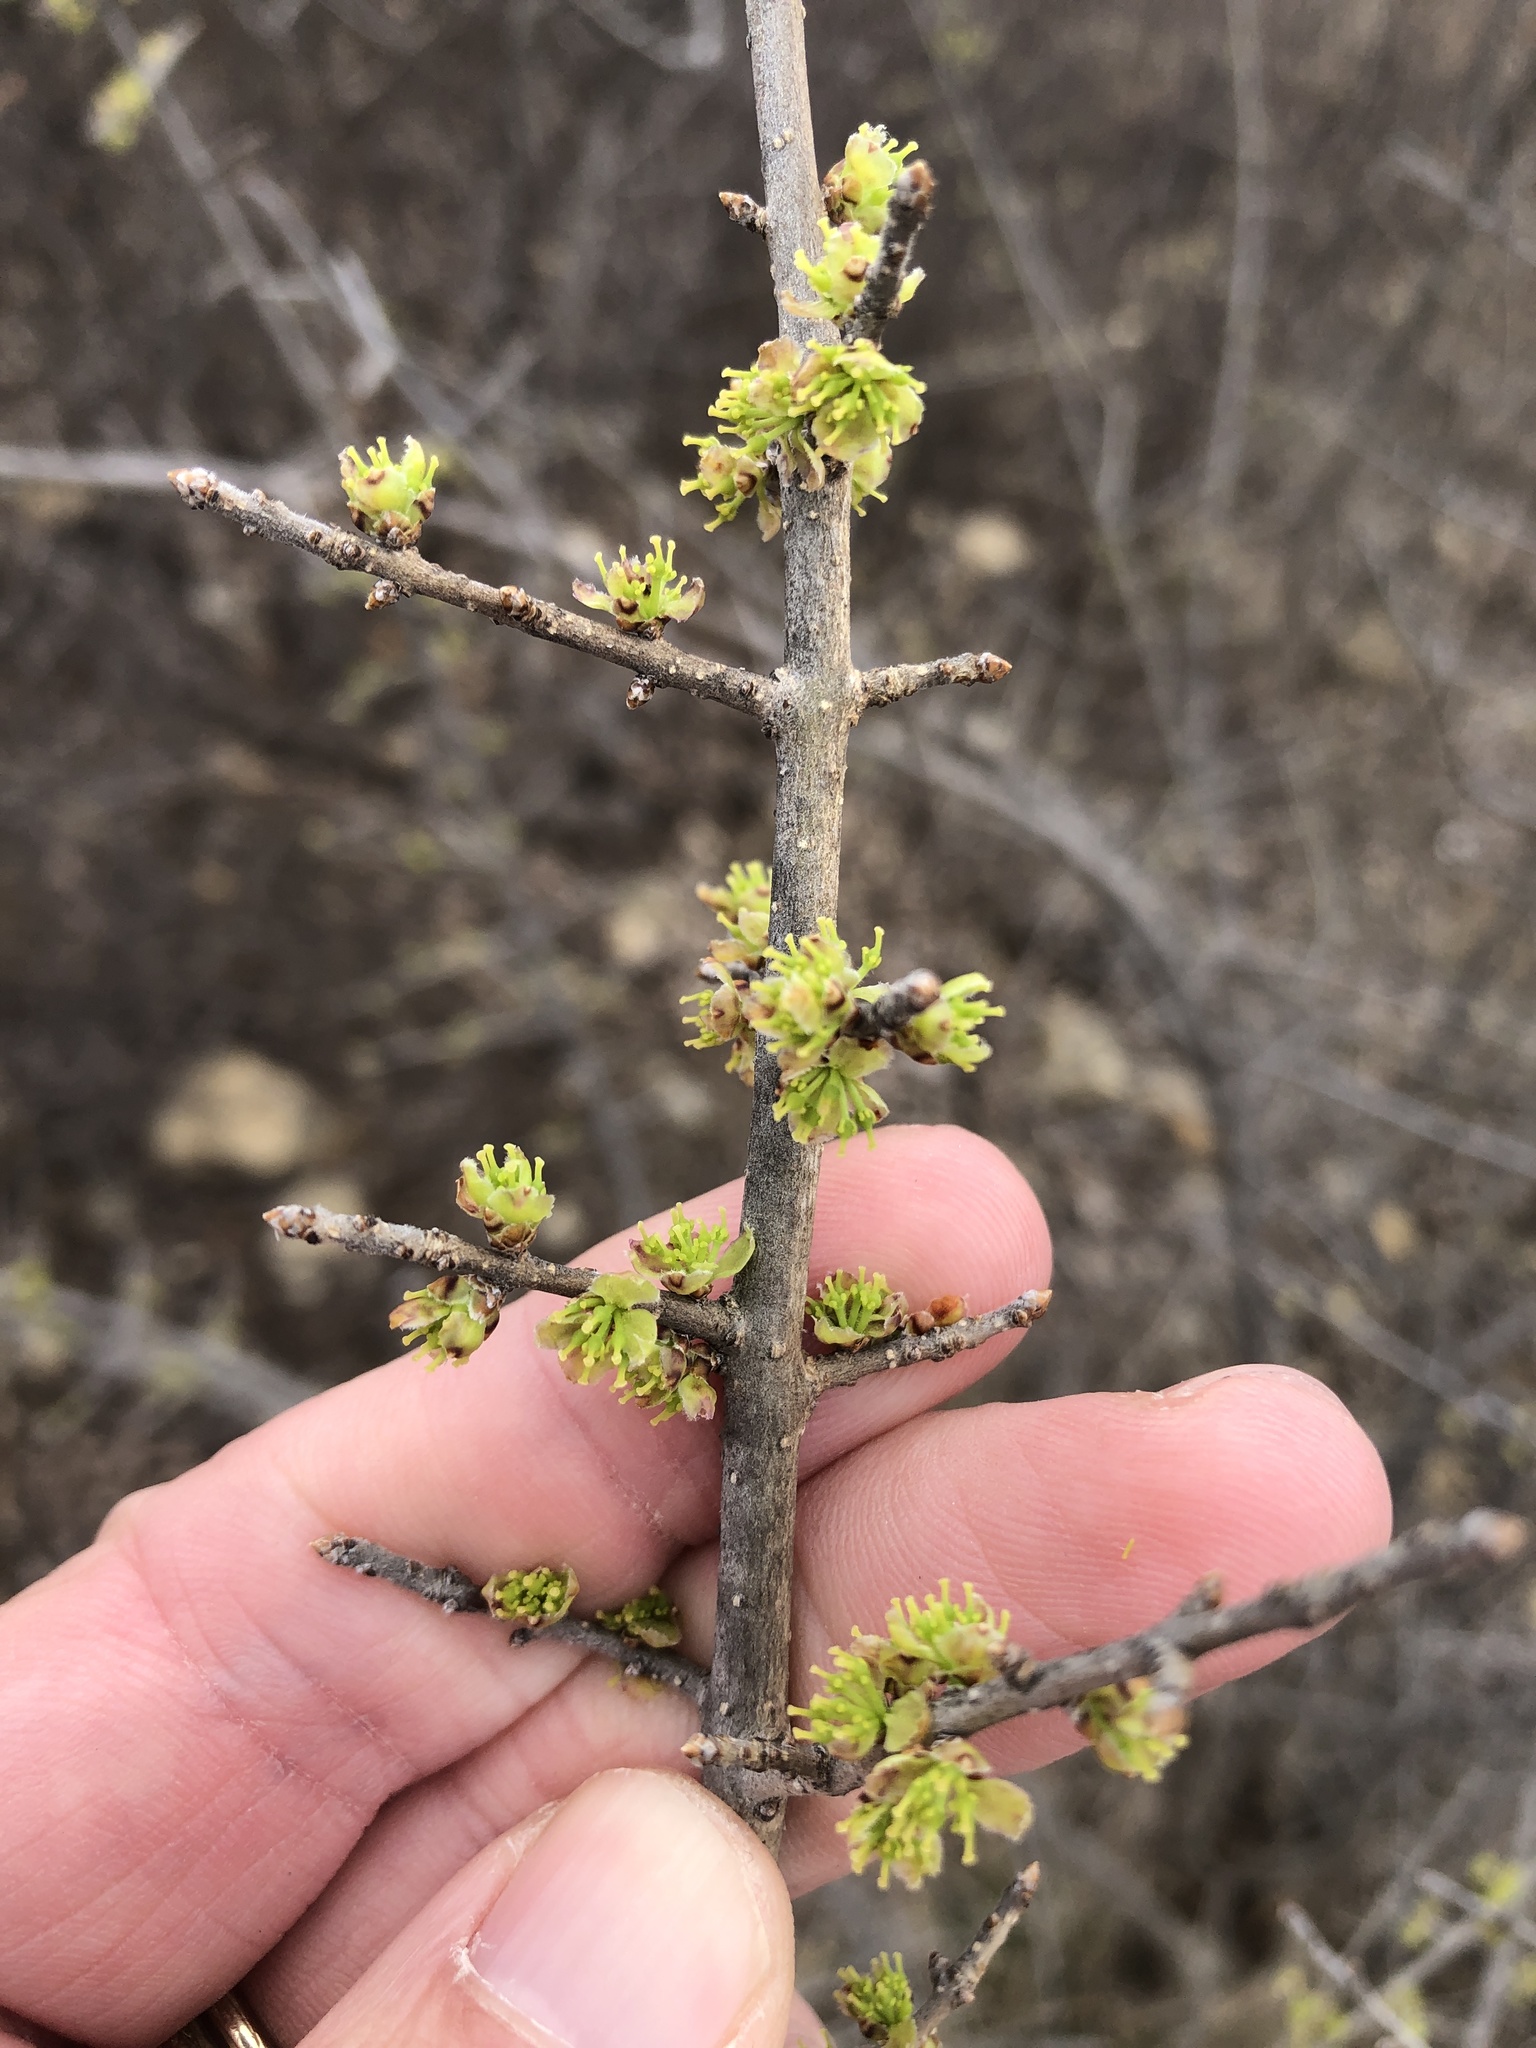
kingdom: Plantae
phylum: Tracheophyta
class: Magnoliopsida
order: Lamiales
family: Oleaceae
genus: Forestiera
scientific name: Forestiera pubescens
